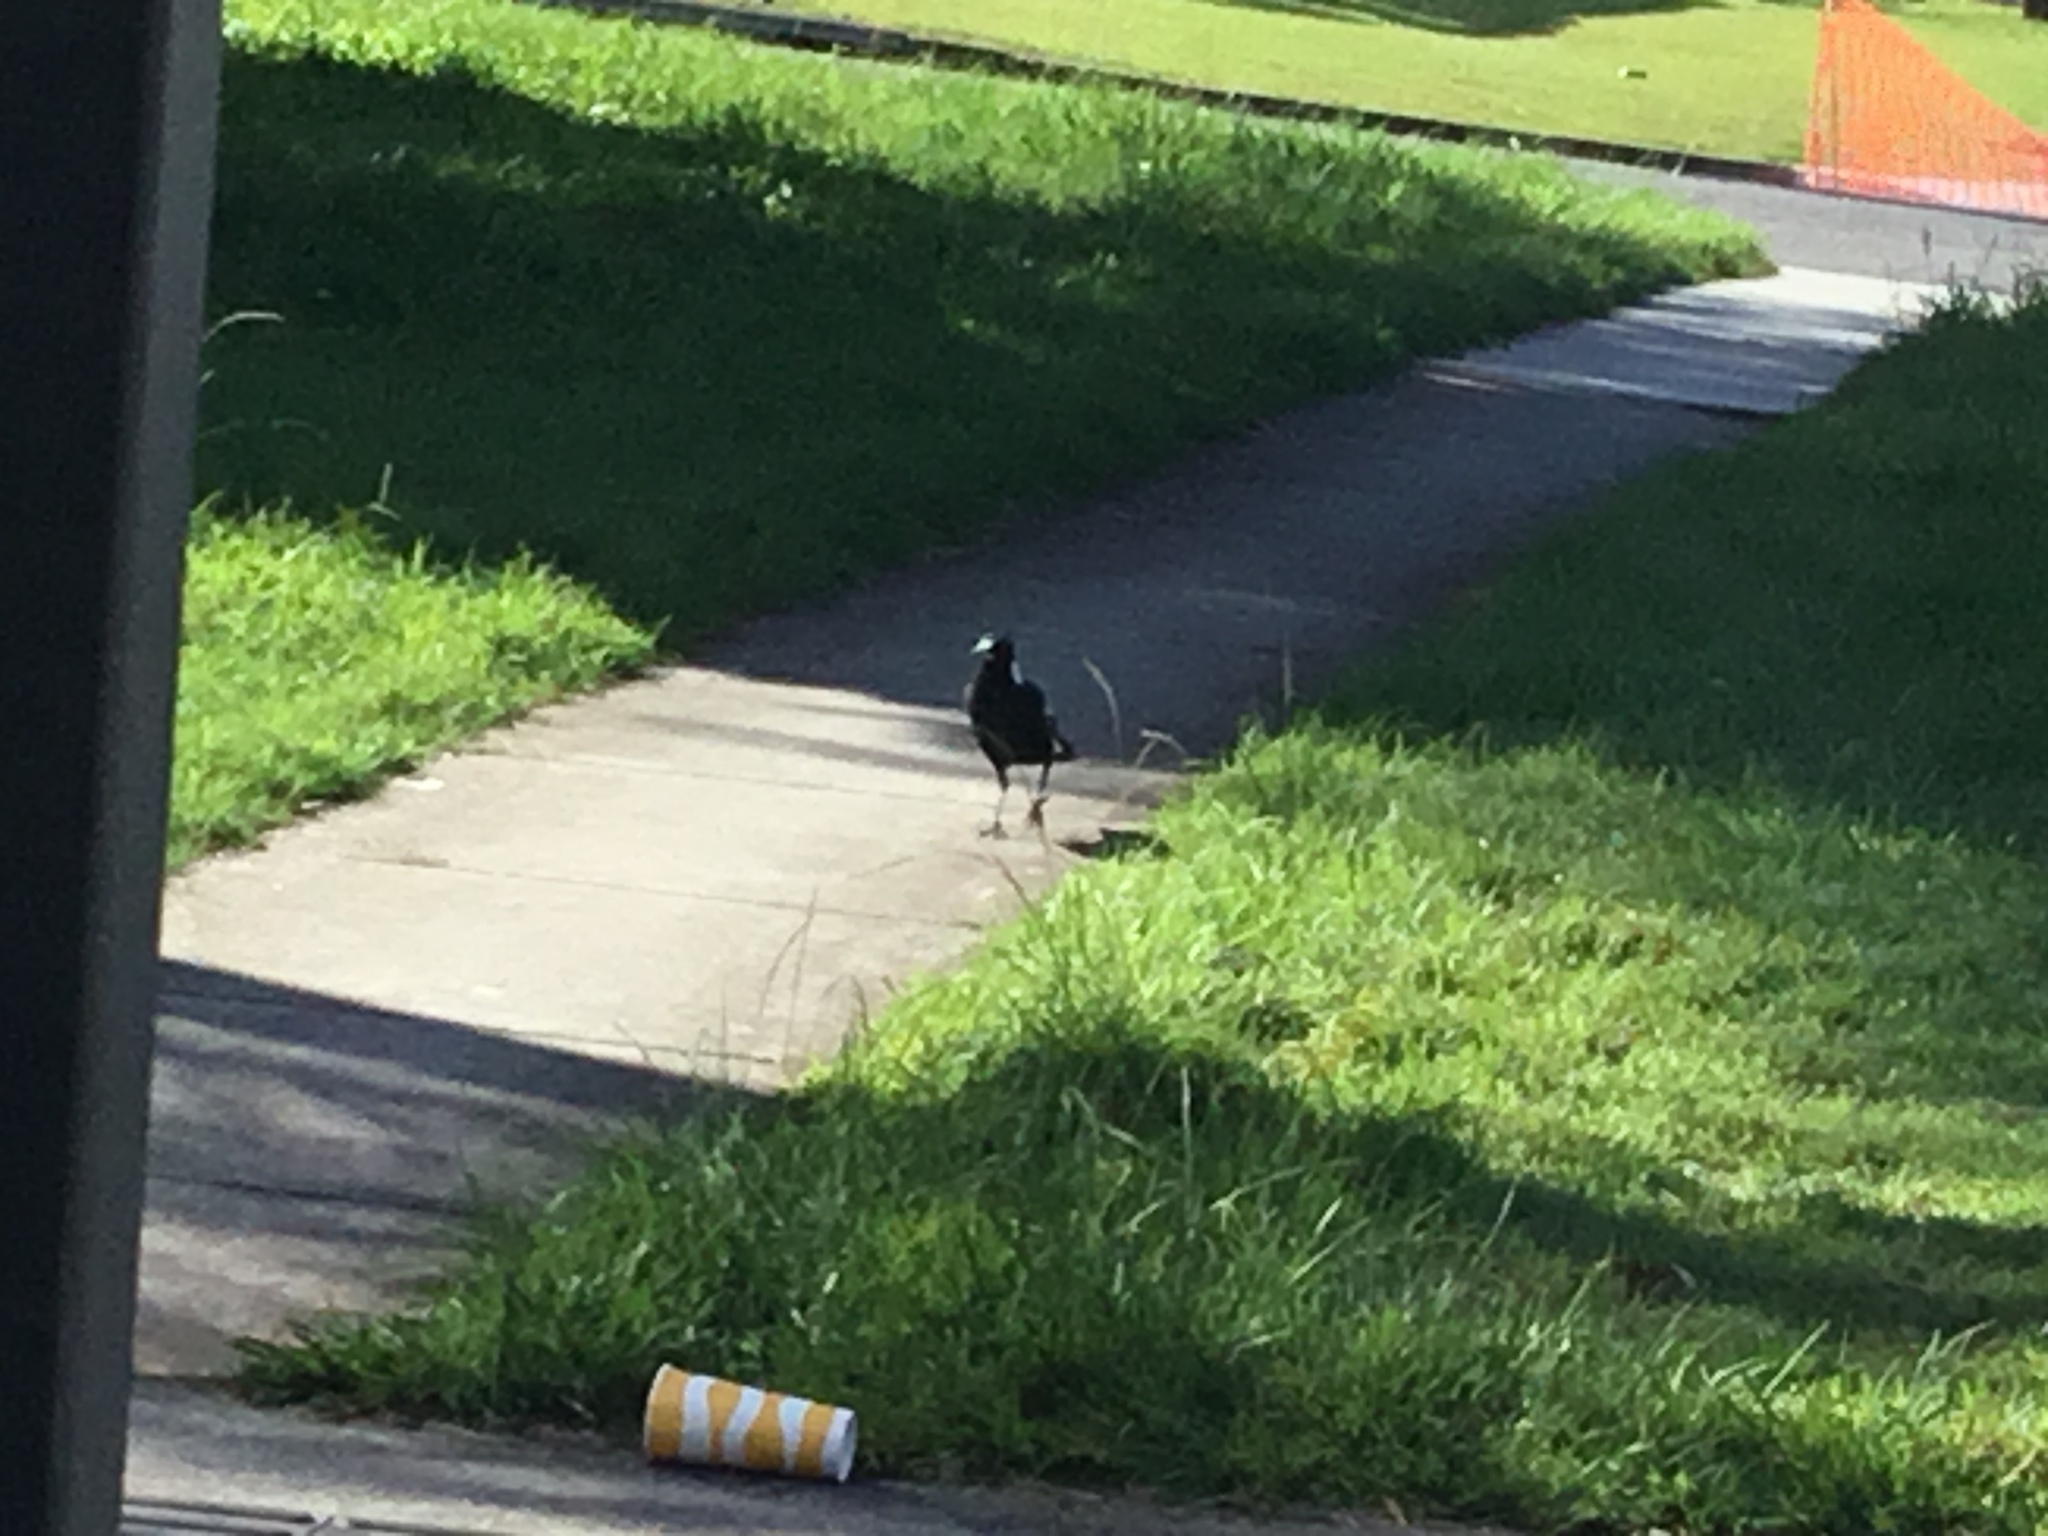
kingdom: Animalia
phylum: Chordata
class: Aves
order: Passeriformes
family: Cracticidae
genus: Gymnorhina
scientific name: Gymnorhina tibicen
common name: Australian magpie
